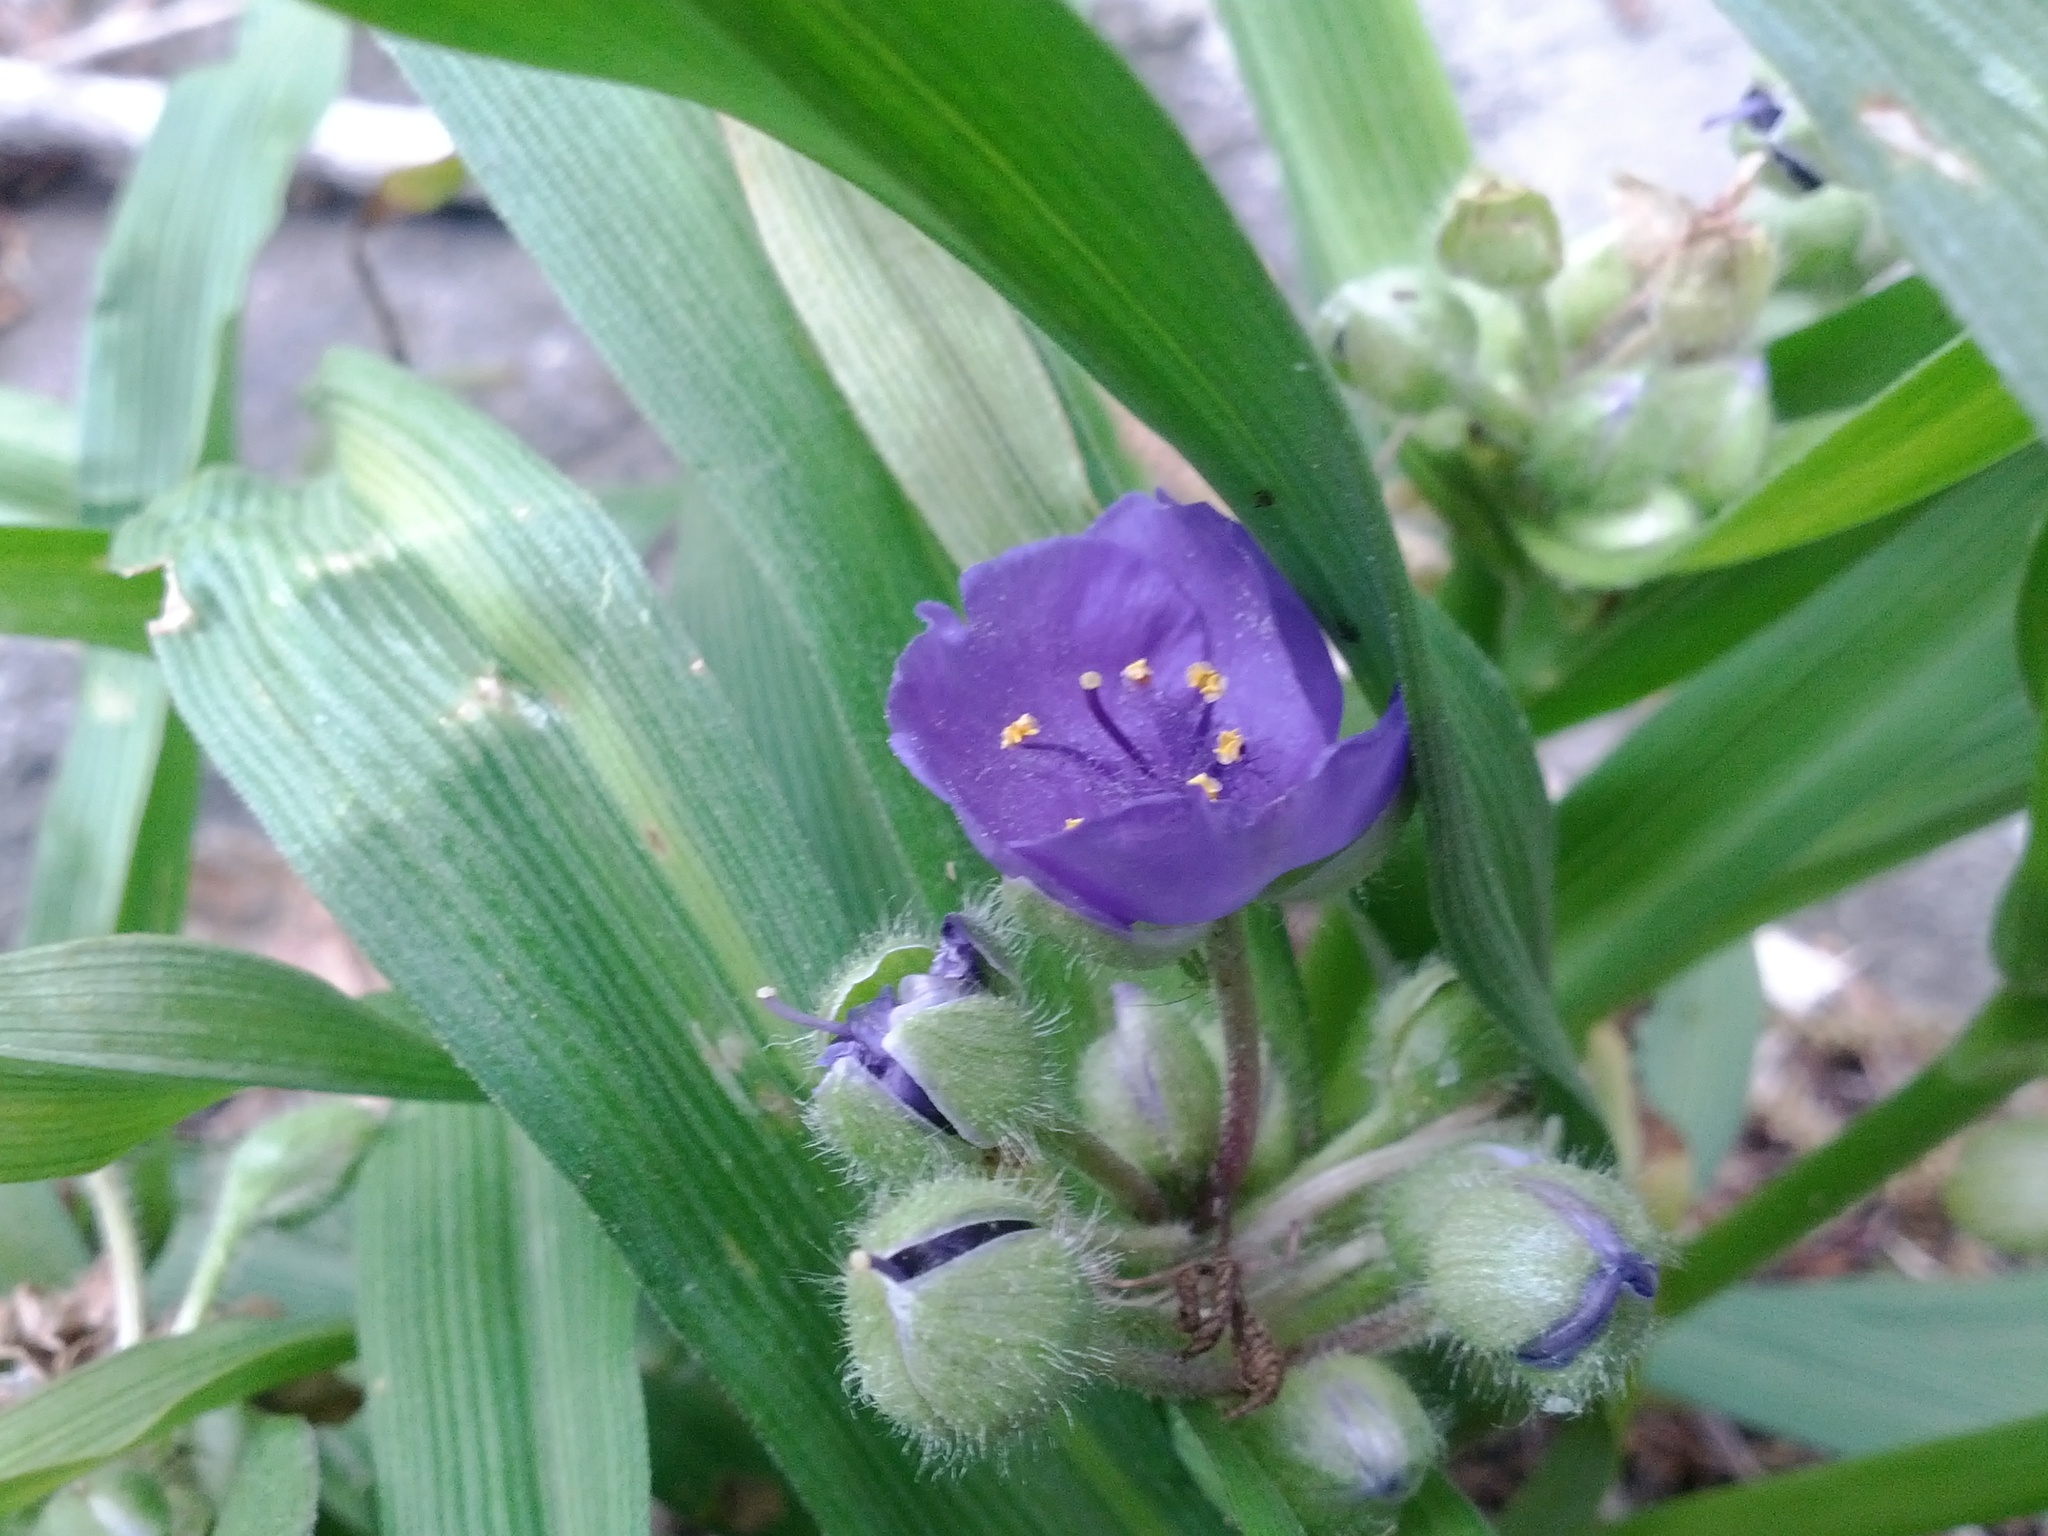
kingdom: Plantae
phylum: Tracheophyta
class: Liliopsida
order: Commelinales
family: Commelinaceae
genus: Tradescantia
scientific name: Tradescantia virginiana
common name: Spiderwort
